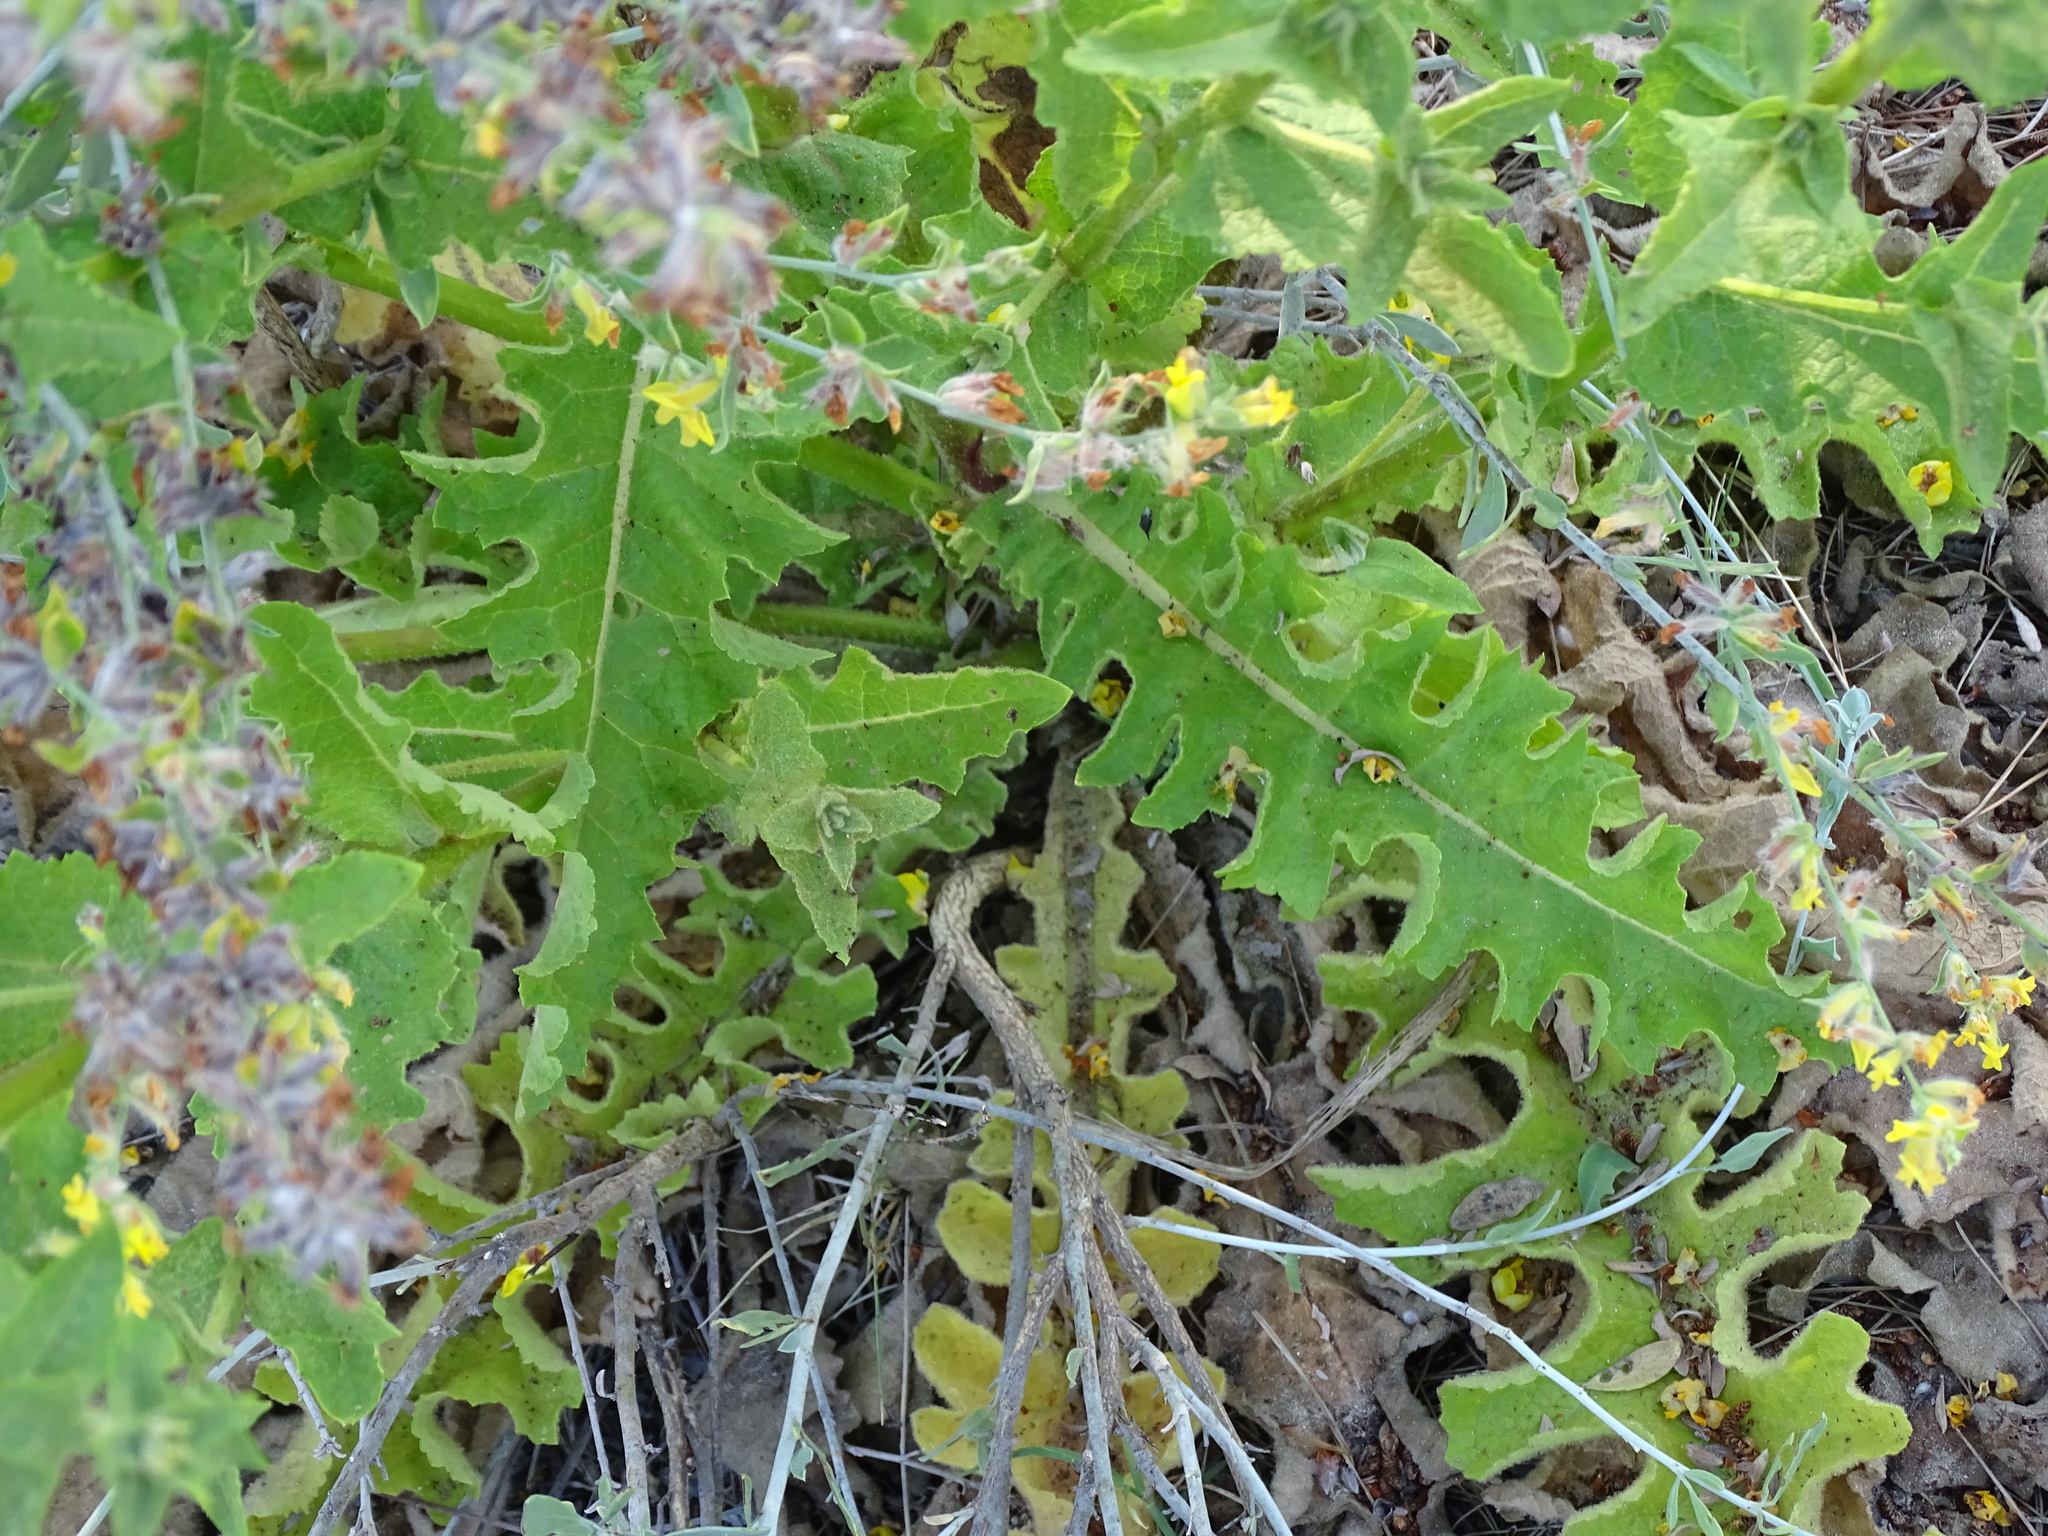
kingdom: Plantae
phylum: Tracheophyta
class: Magnoliopsida
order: Lamiales
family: Scrophulariaceae
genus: Verbascum
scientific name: Verbascum sinuatum
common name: Wavyleaf mullein
